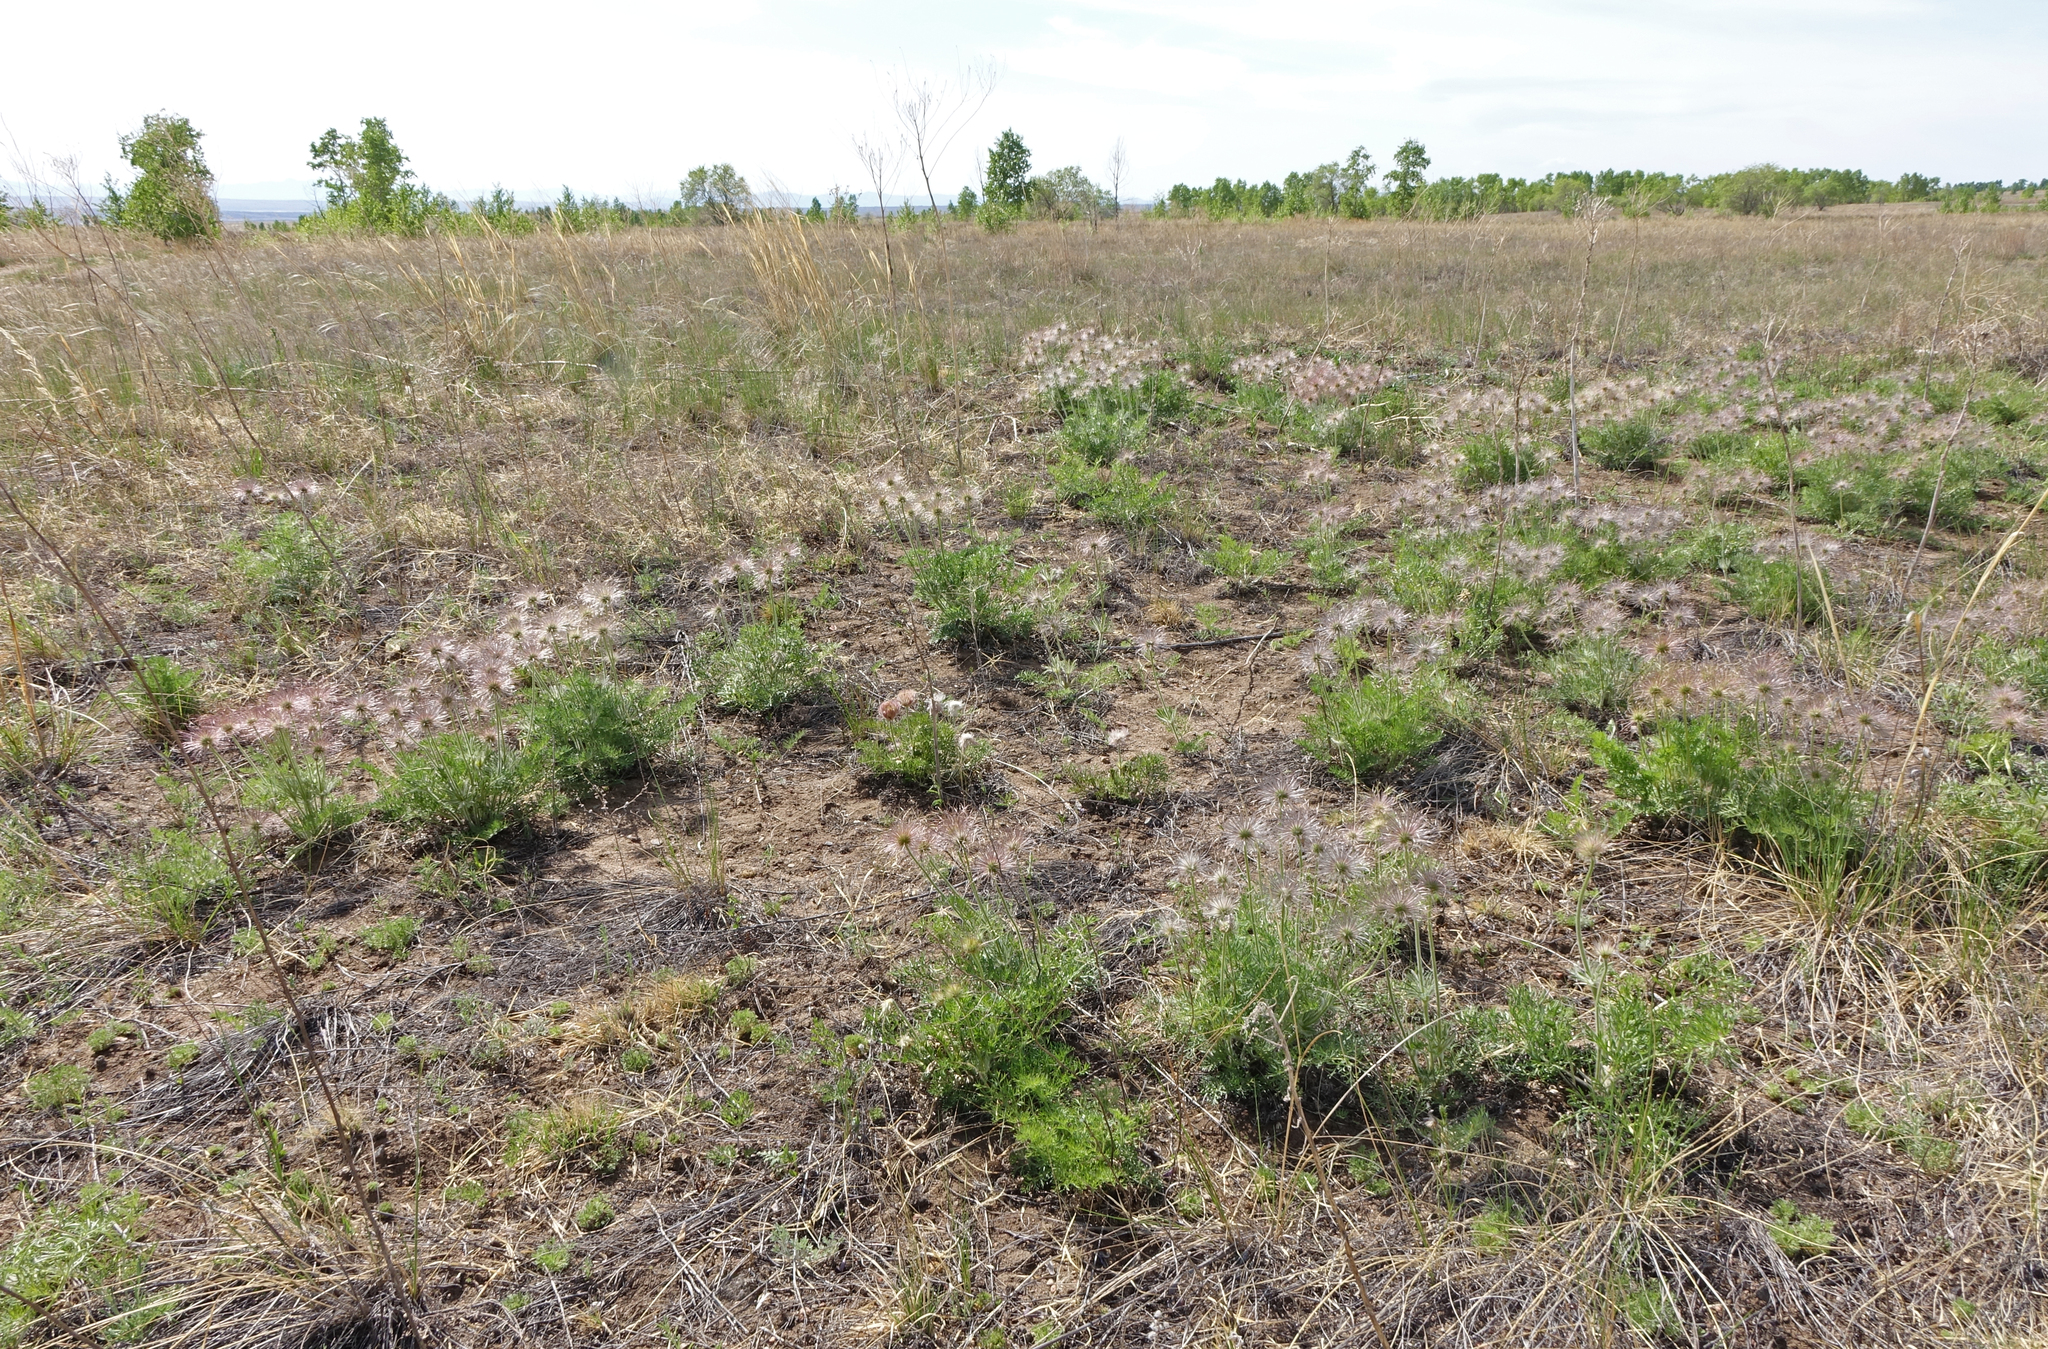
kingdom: Plantae
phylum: Tracheophyta
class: Magnoliopsida
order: Ranunculales
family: Ranunculaceae
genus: Pulsatilla
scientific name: Pulsatilla turczaninovii
